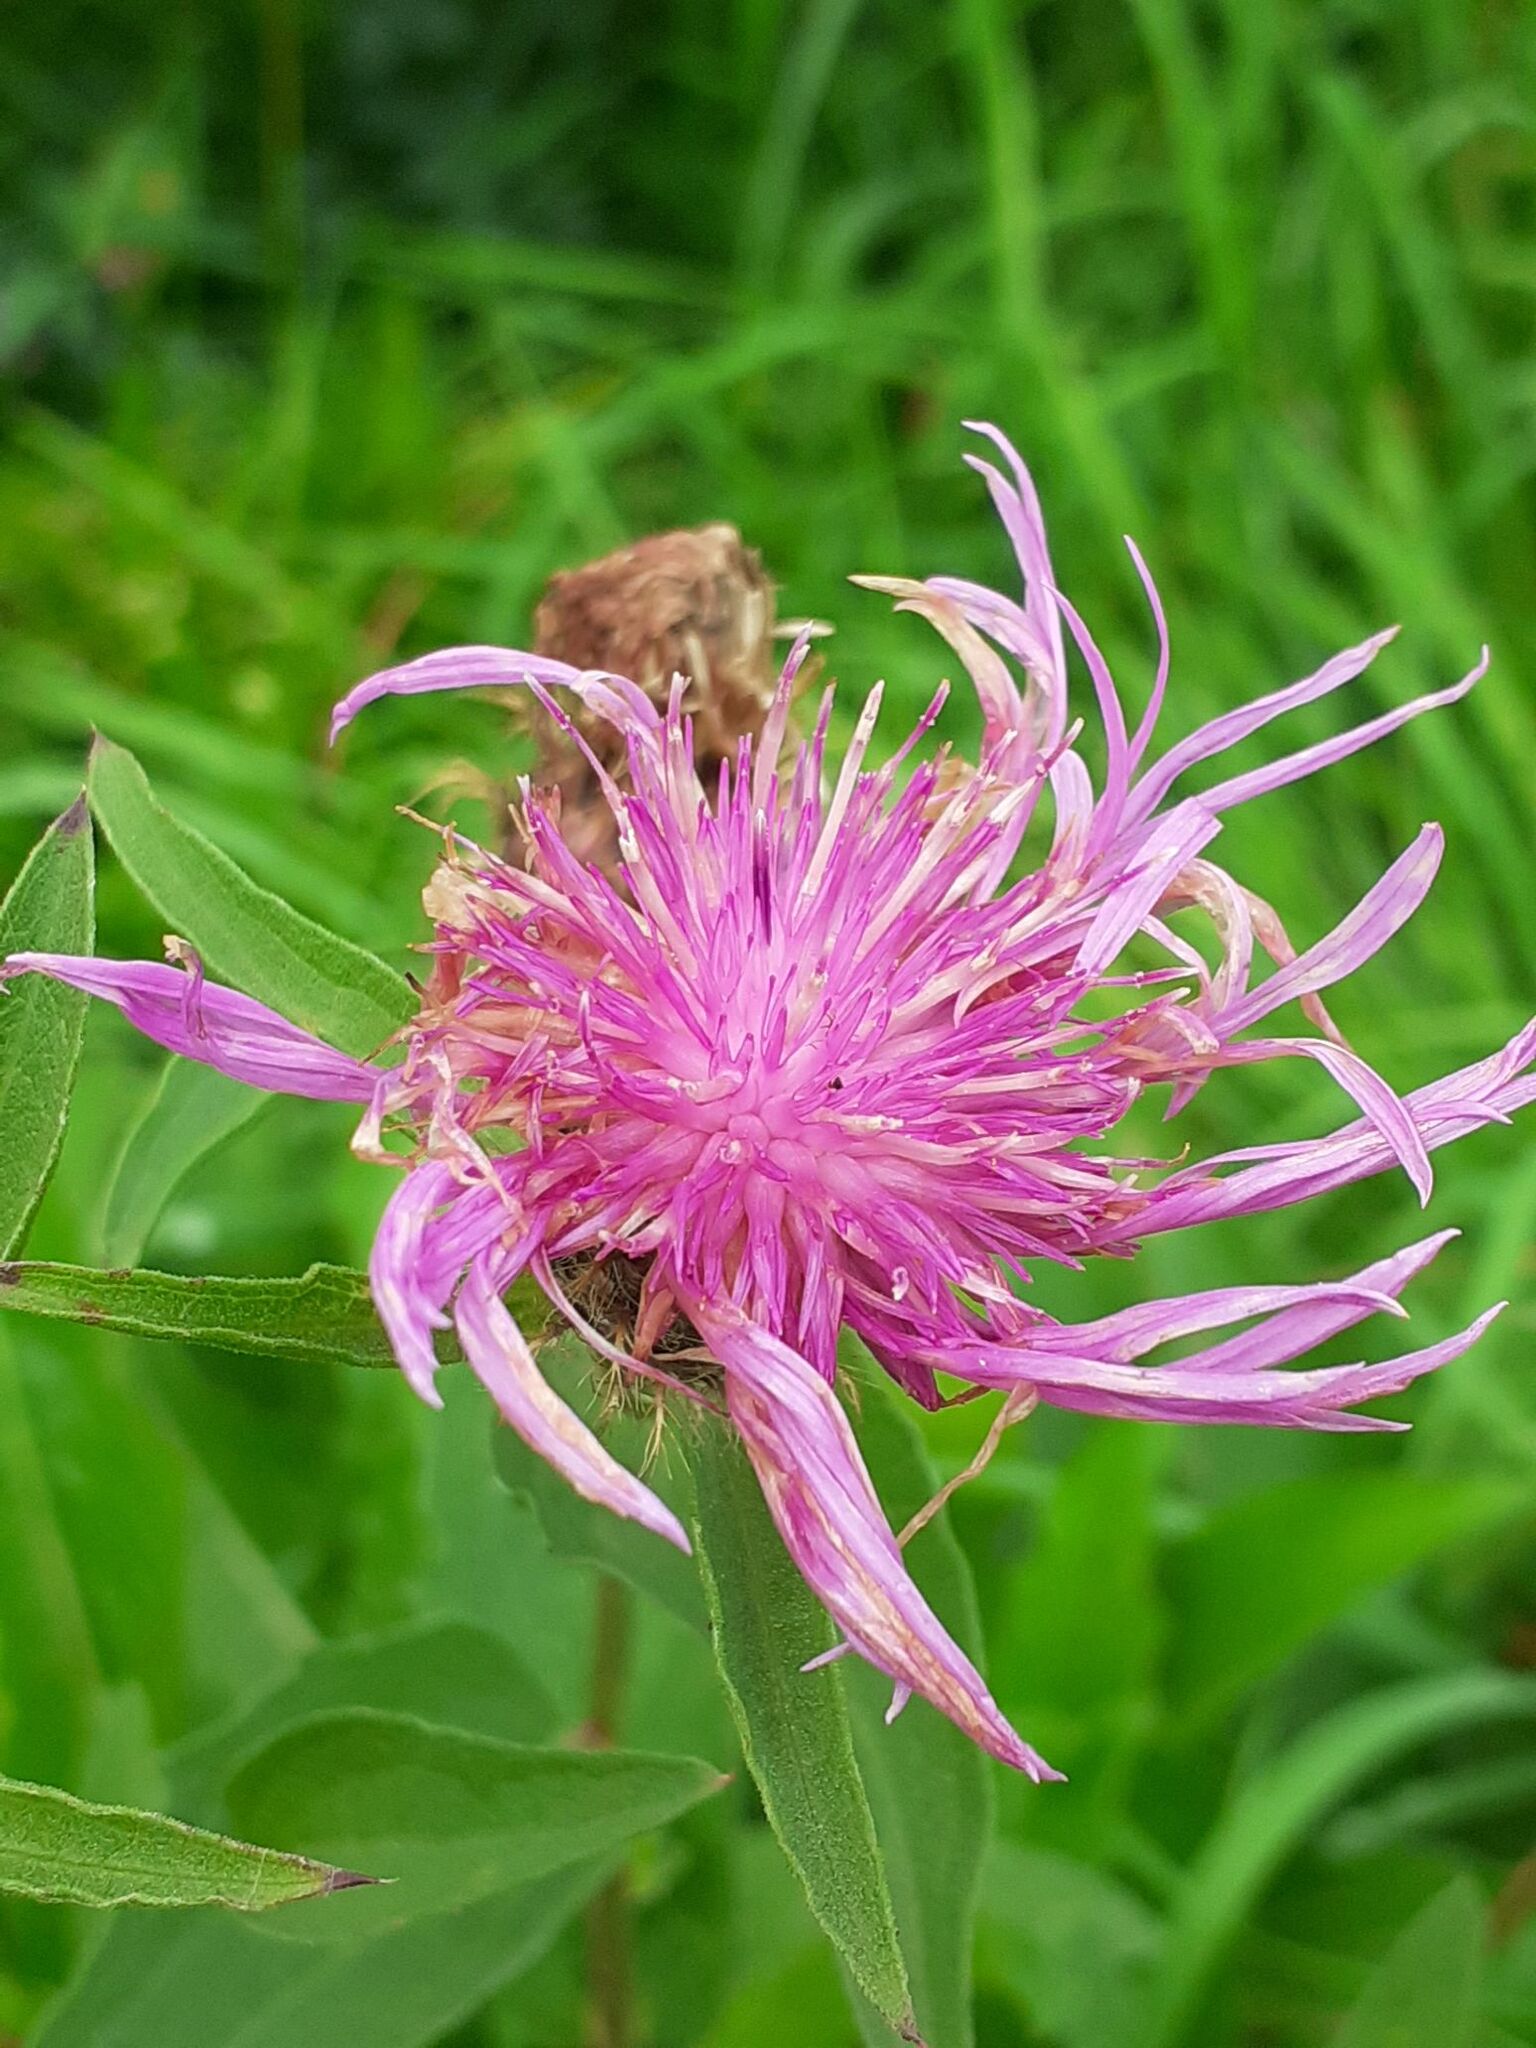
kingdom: Plantae
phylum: Tracheophyta
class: Magnoliopsida
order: Asterales
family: Asteraceae
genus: Centaurea
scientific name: Centaurea jacea
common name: Brown knapweed
